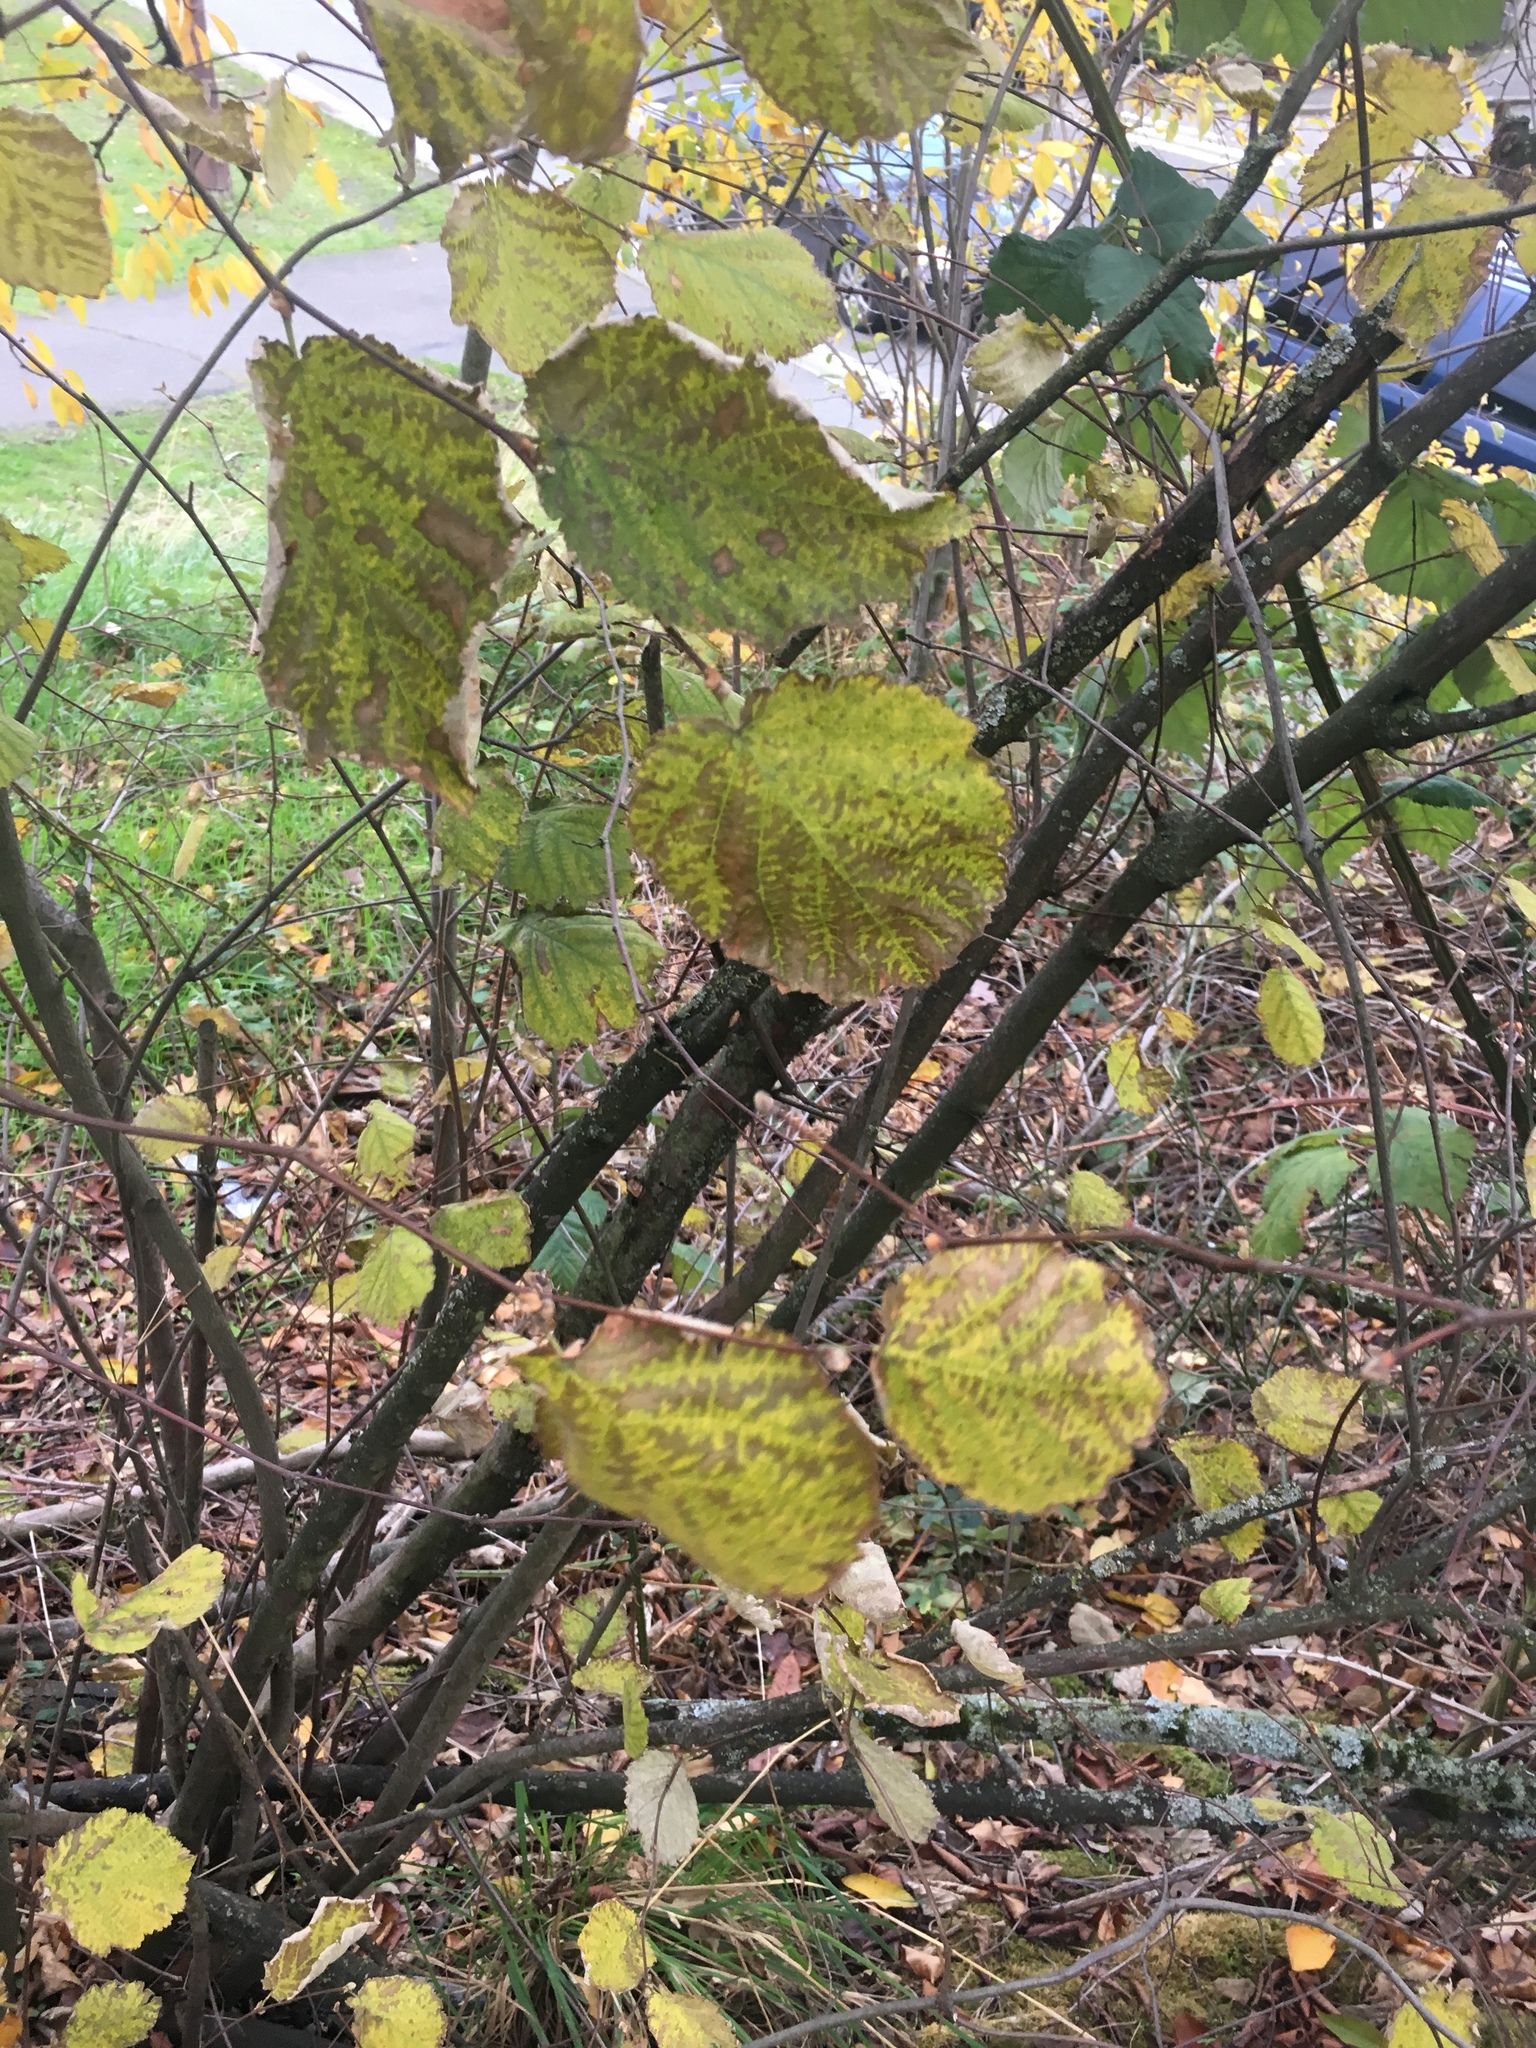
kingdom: Plantae
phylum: Tracheophyta
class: Magnoliopsida
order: Fagales
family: Betulaceae
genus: Corylus
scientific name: Corylus cornuta
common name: Beaked hazel
